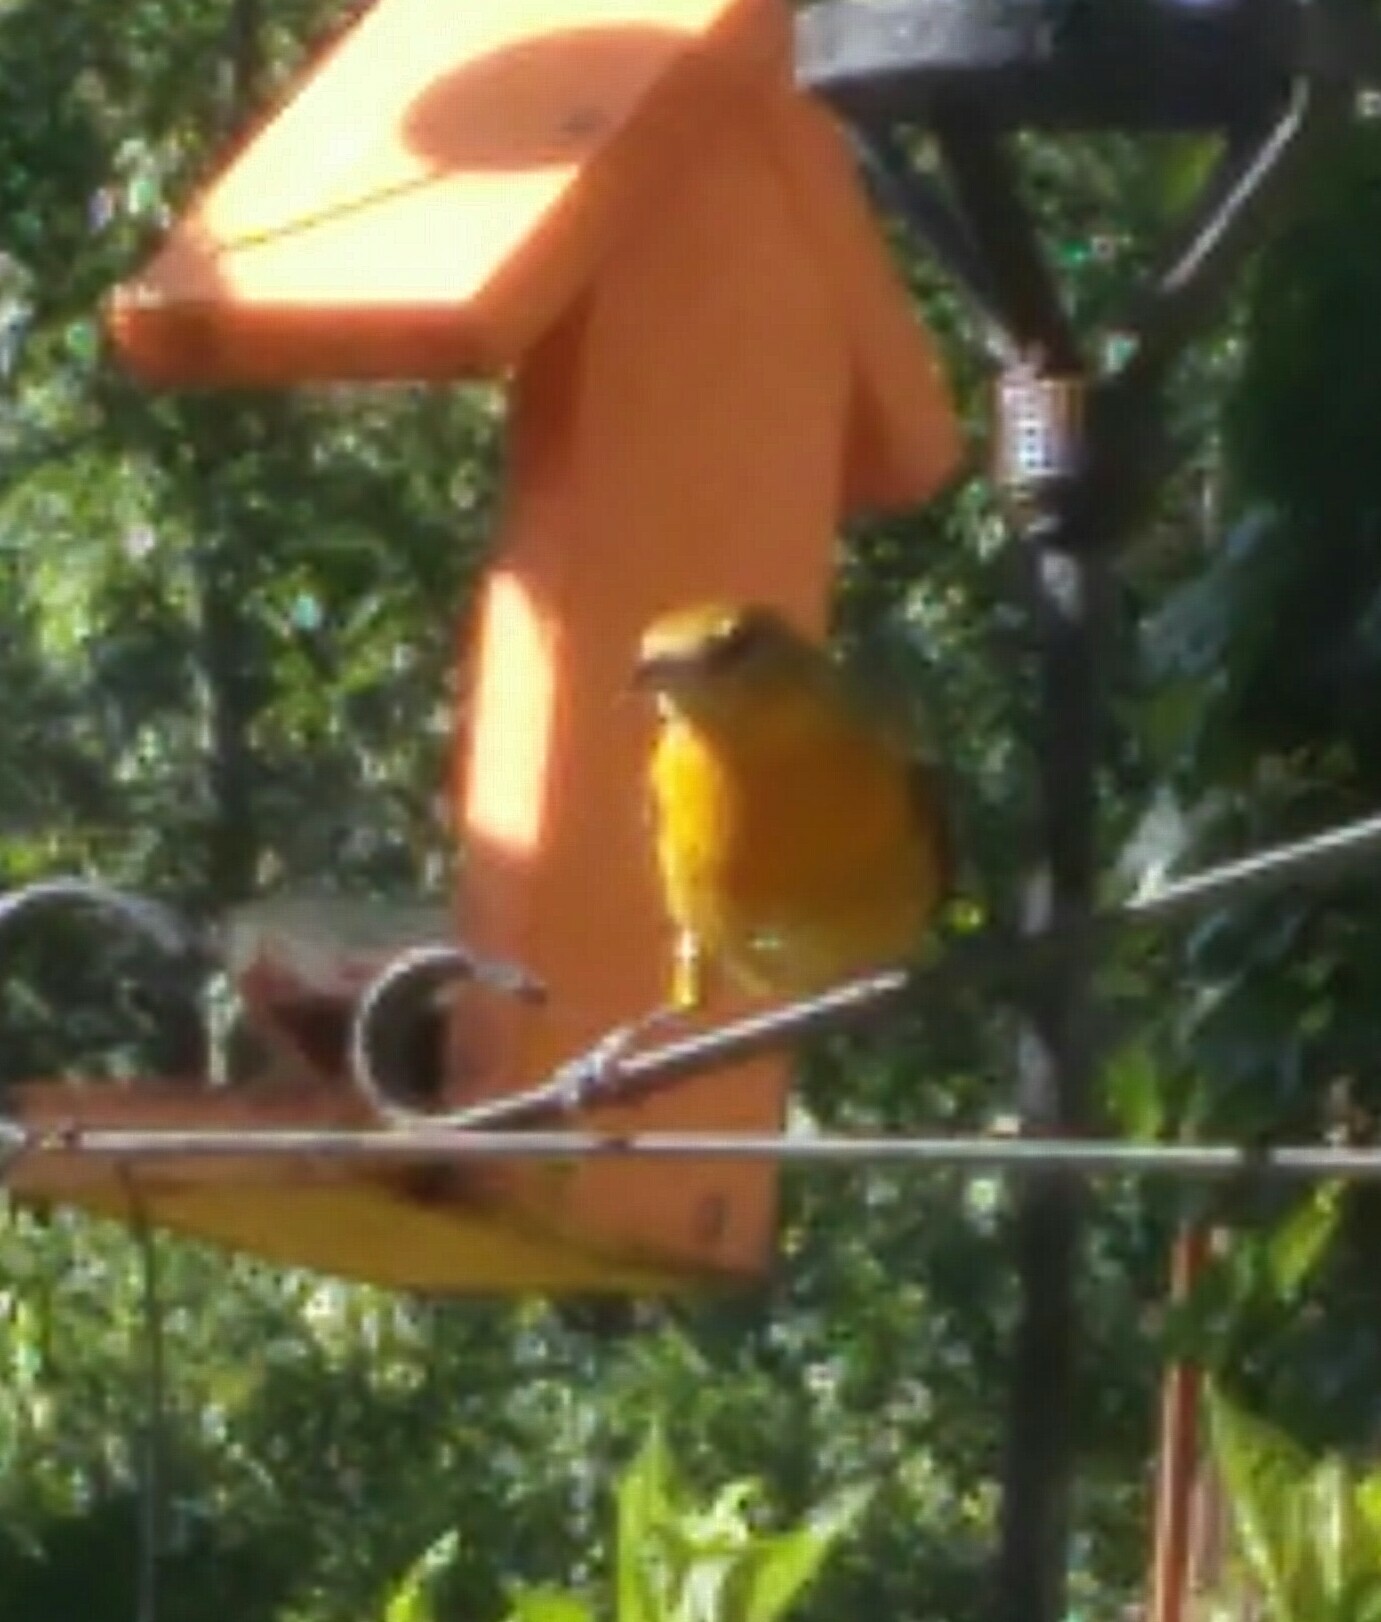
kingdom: Animalia
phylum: Chordata
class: Aves
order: Passeriformes
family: Icteridae
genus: Icterus
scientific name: Icterus galbula
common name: Baltimore oriole
